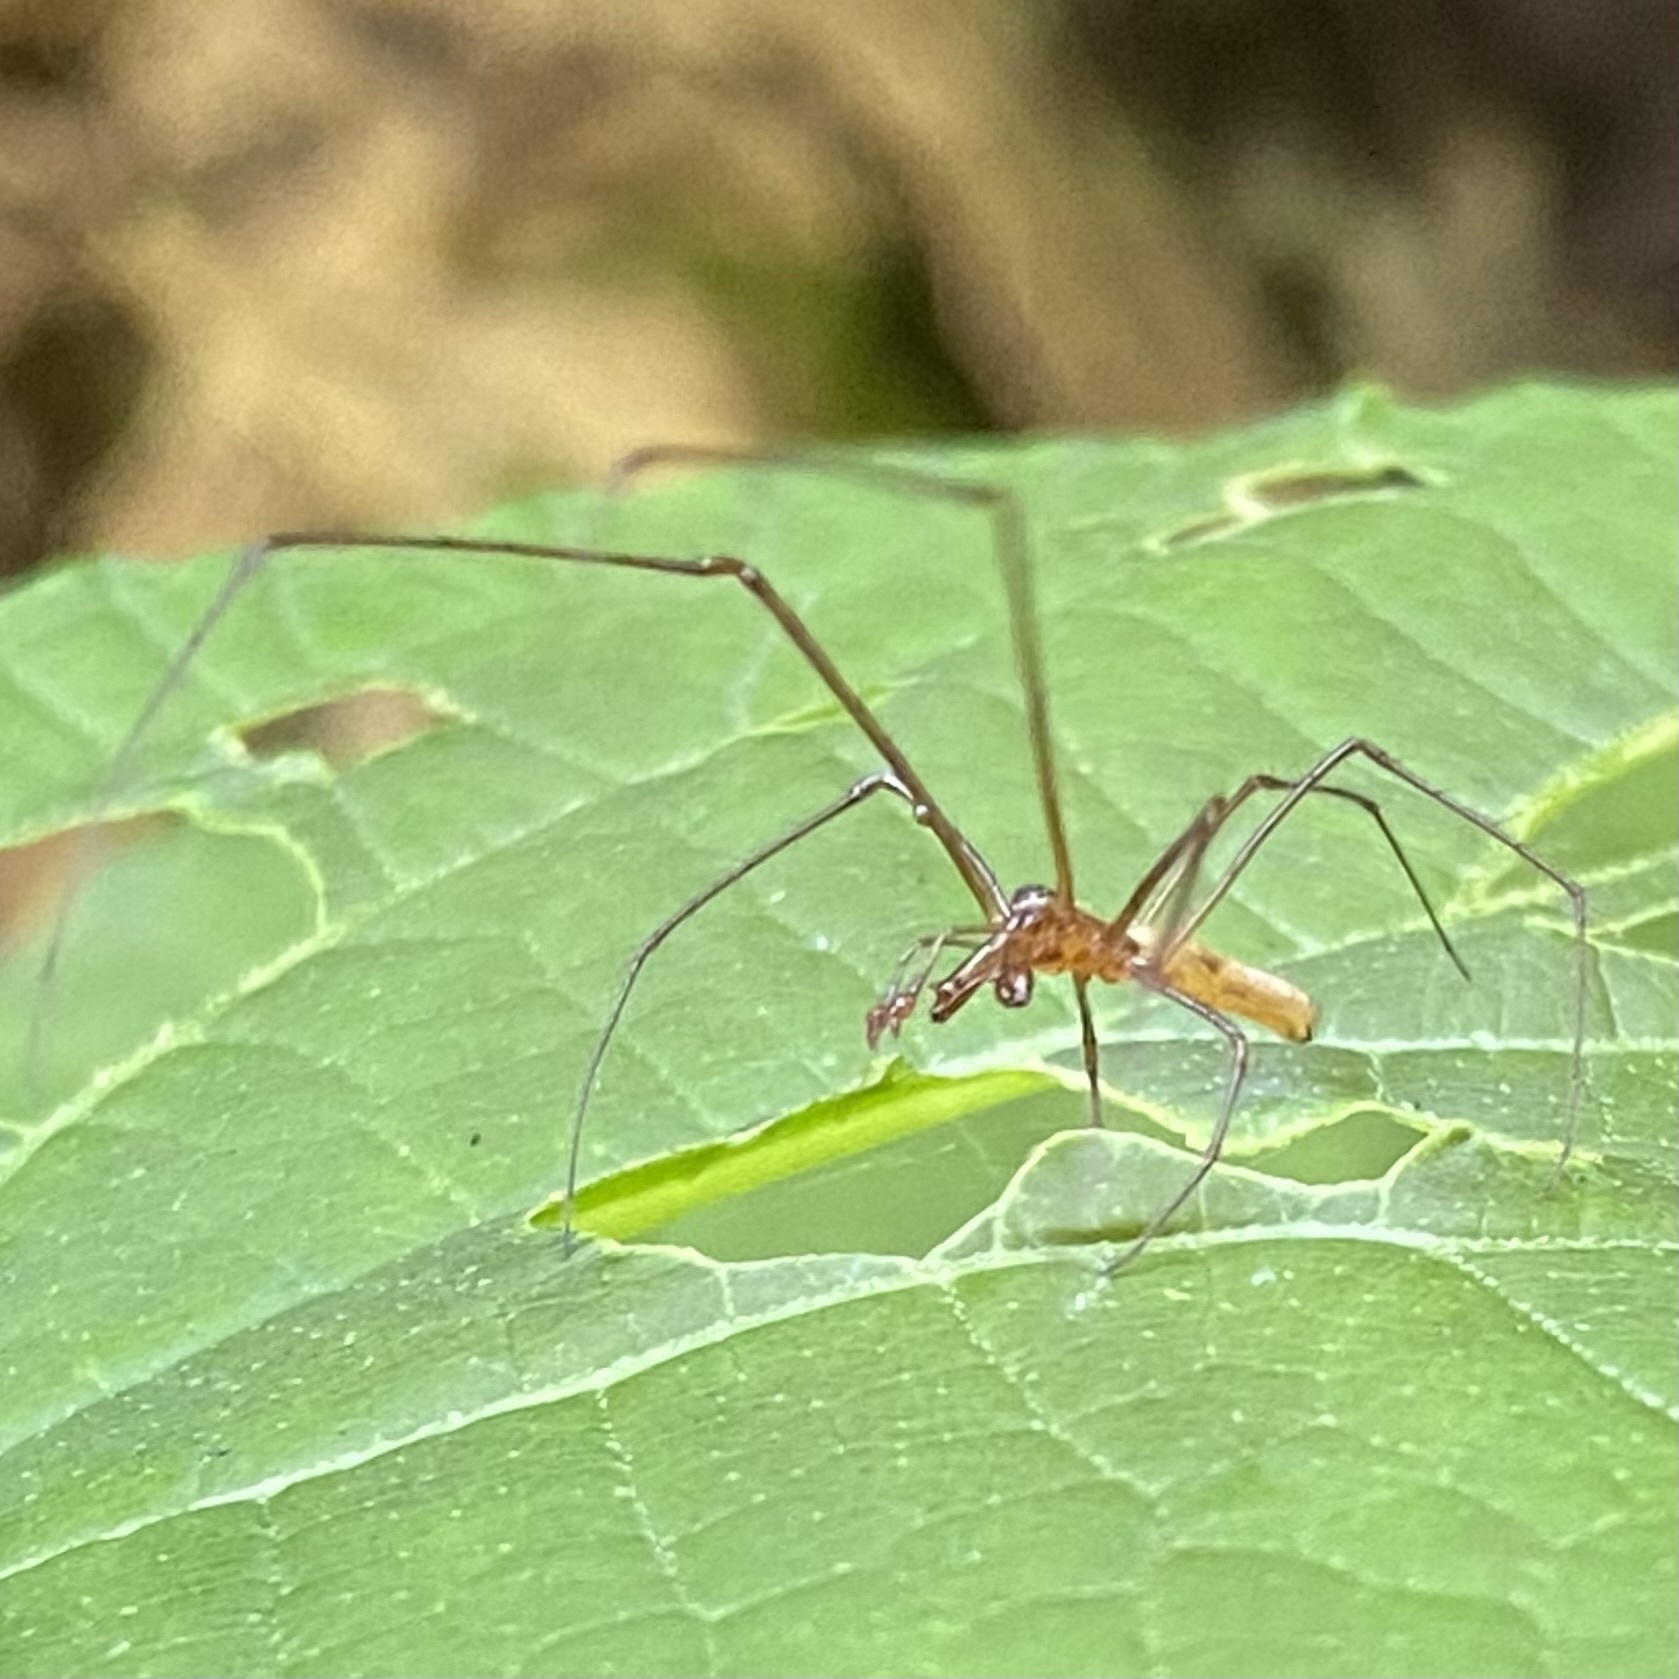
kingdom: Animalia
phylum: Arthropoda
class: Arachnida
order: Araneae
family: Tetragnathidae
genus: Tetragnatha
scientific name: Tetragnatha
